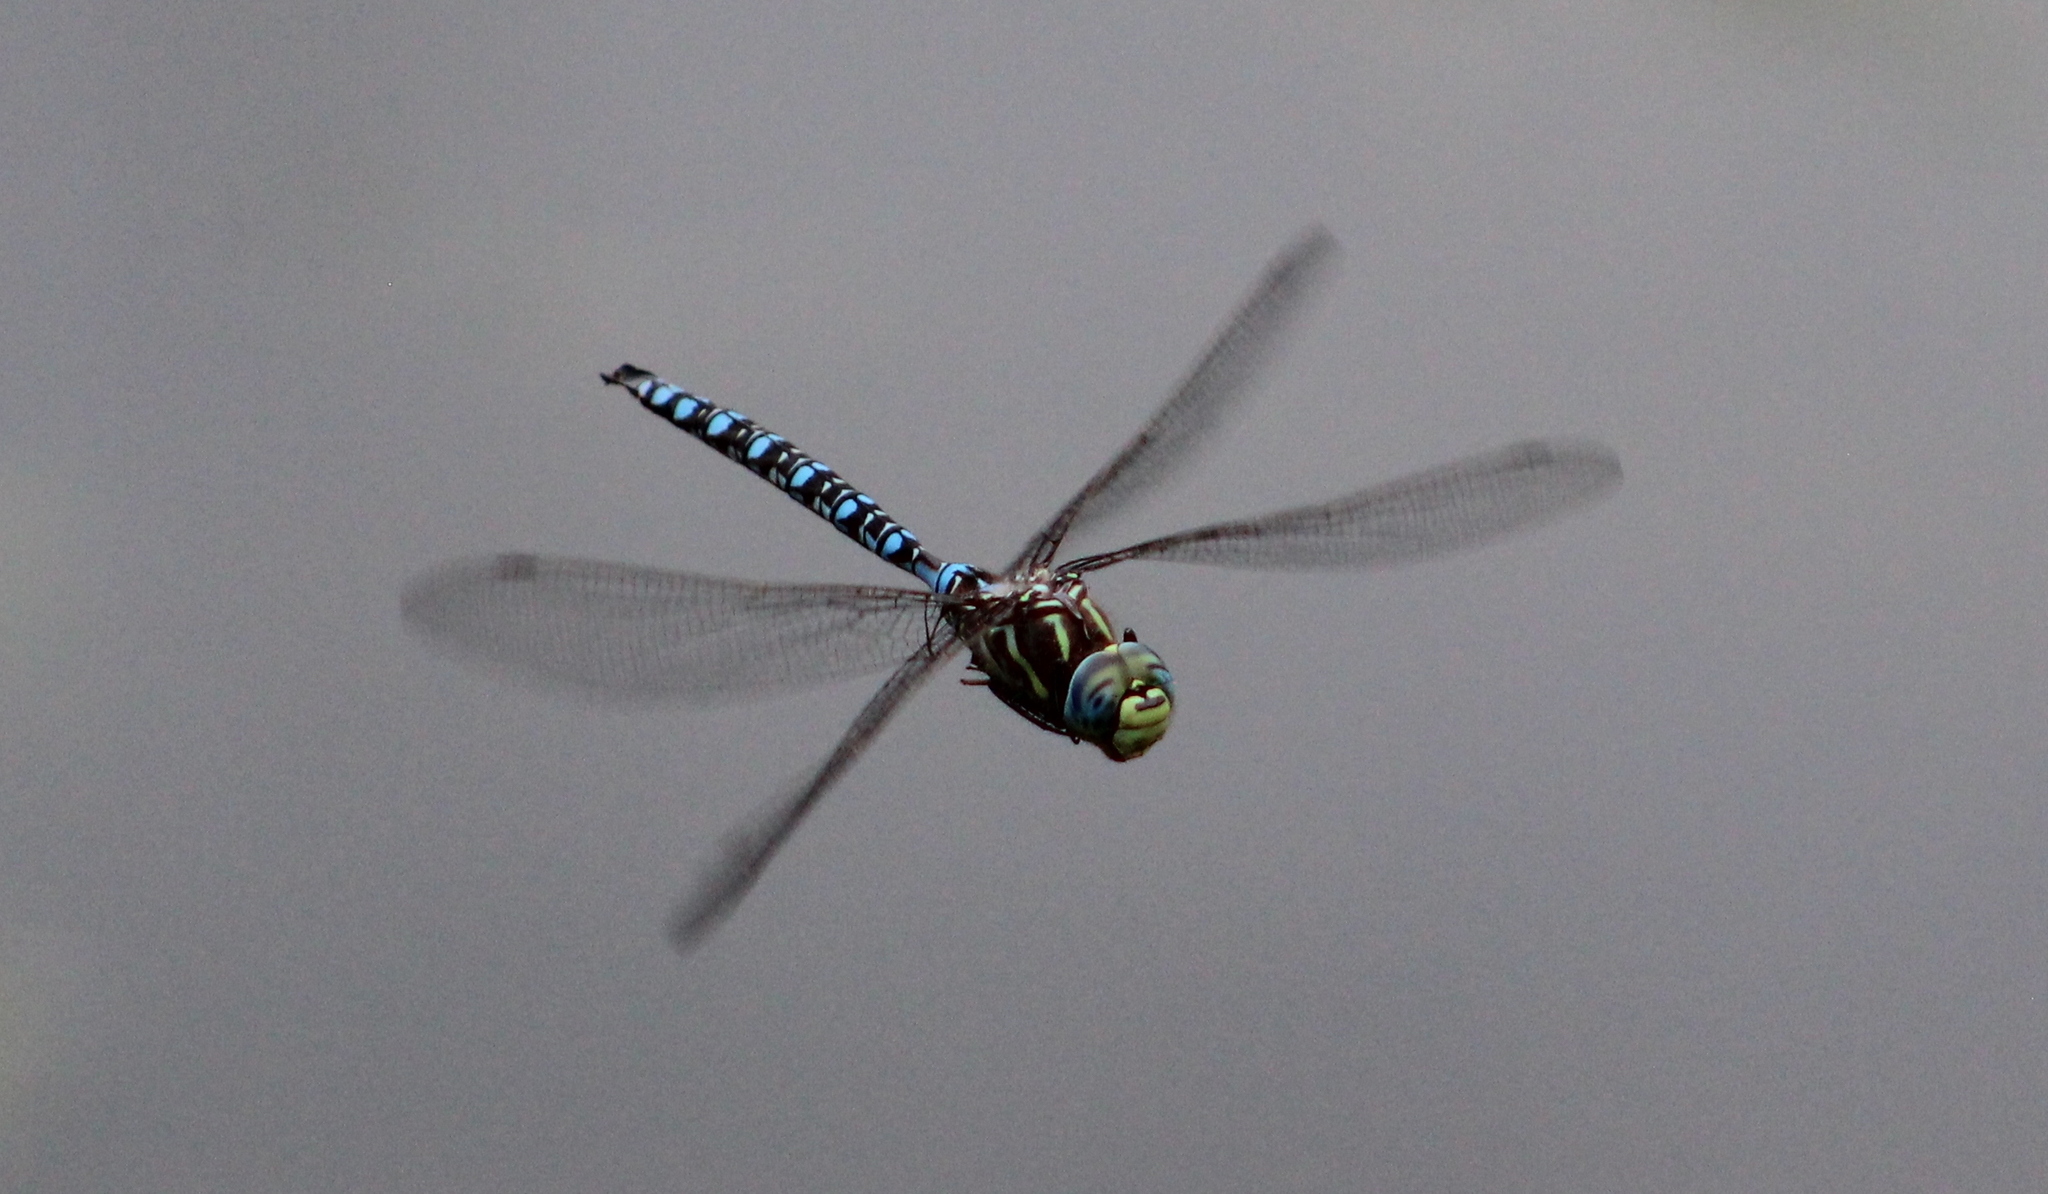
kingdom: Animalia
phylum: Arthropoda
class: Insecta
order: Odonata
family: Aeshnidae
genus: Aeshna
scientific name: Aeshna palmata
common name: Paddle-tailed darner
